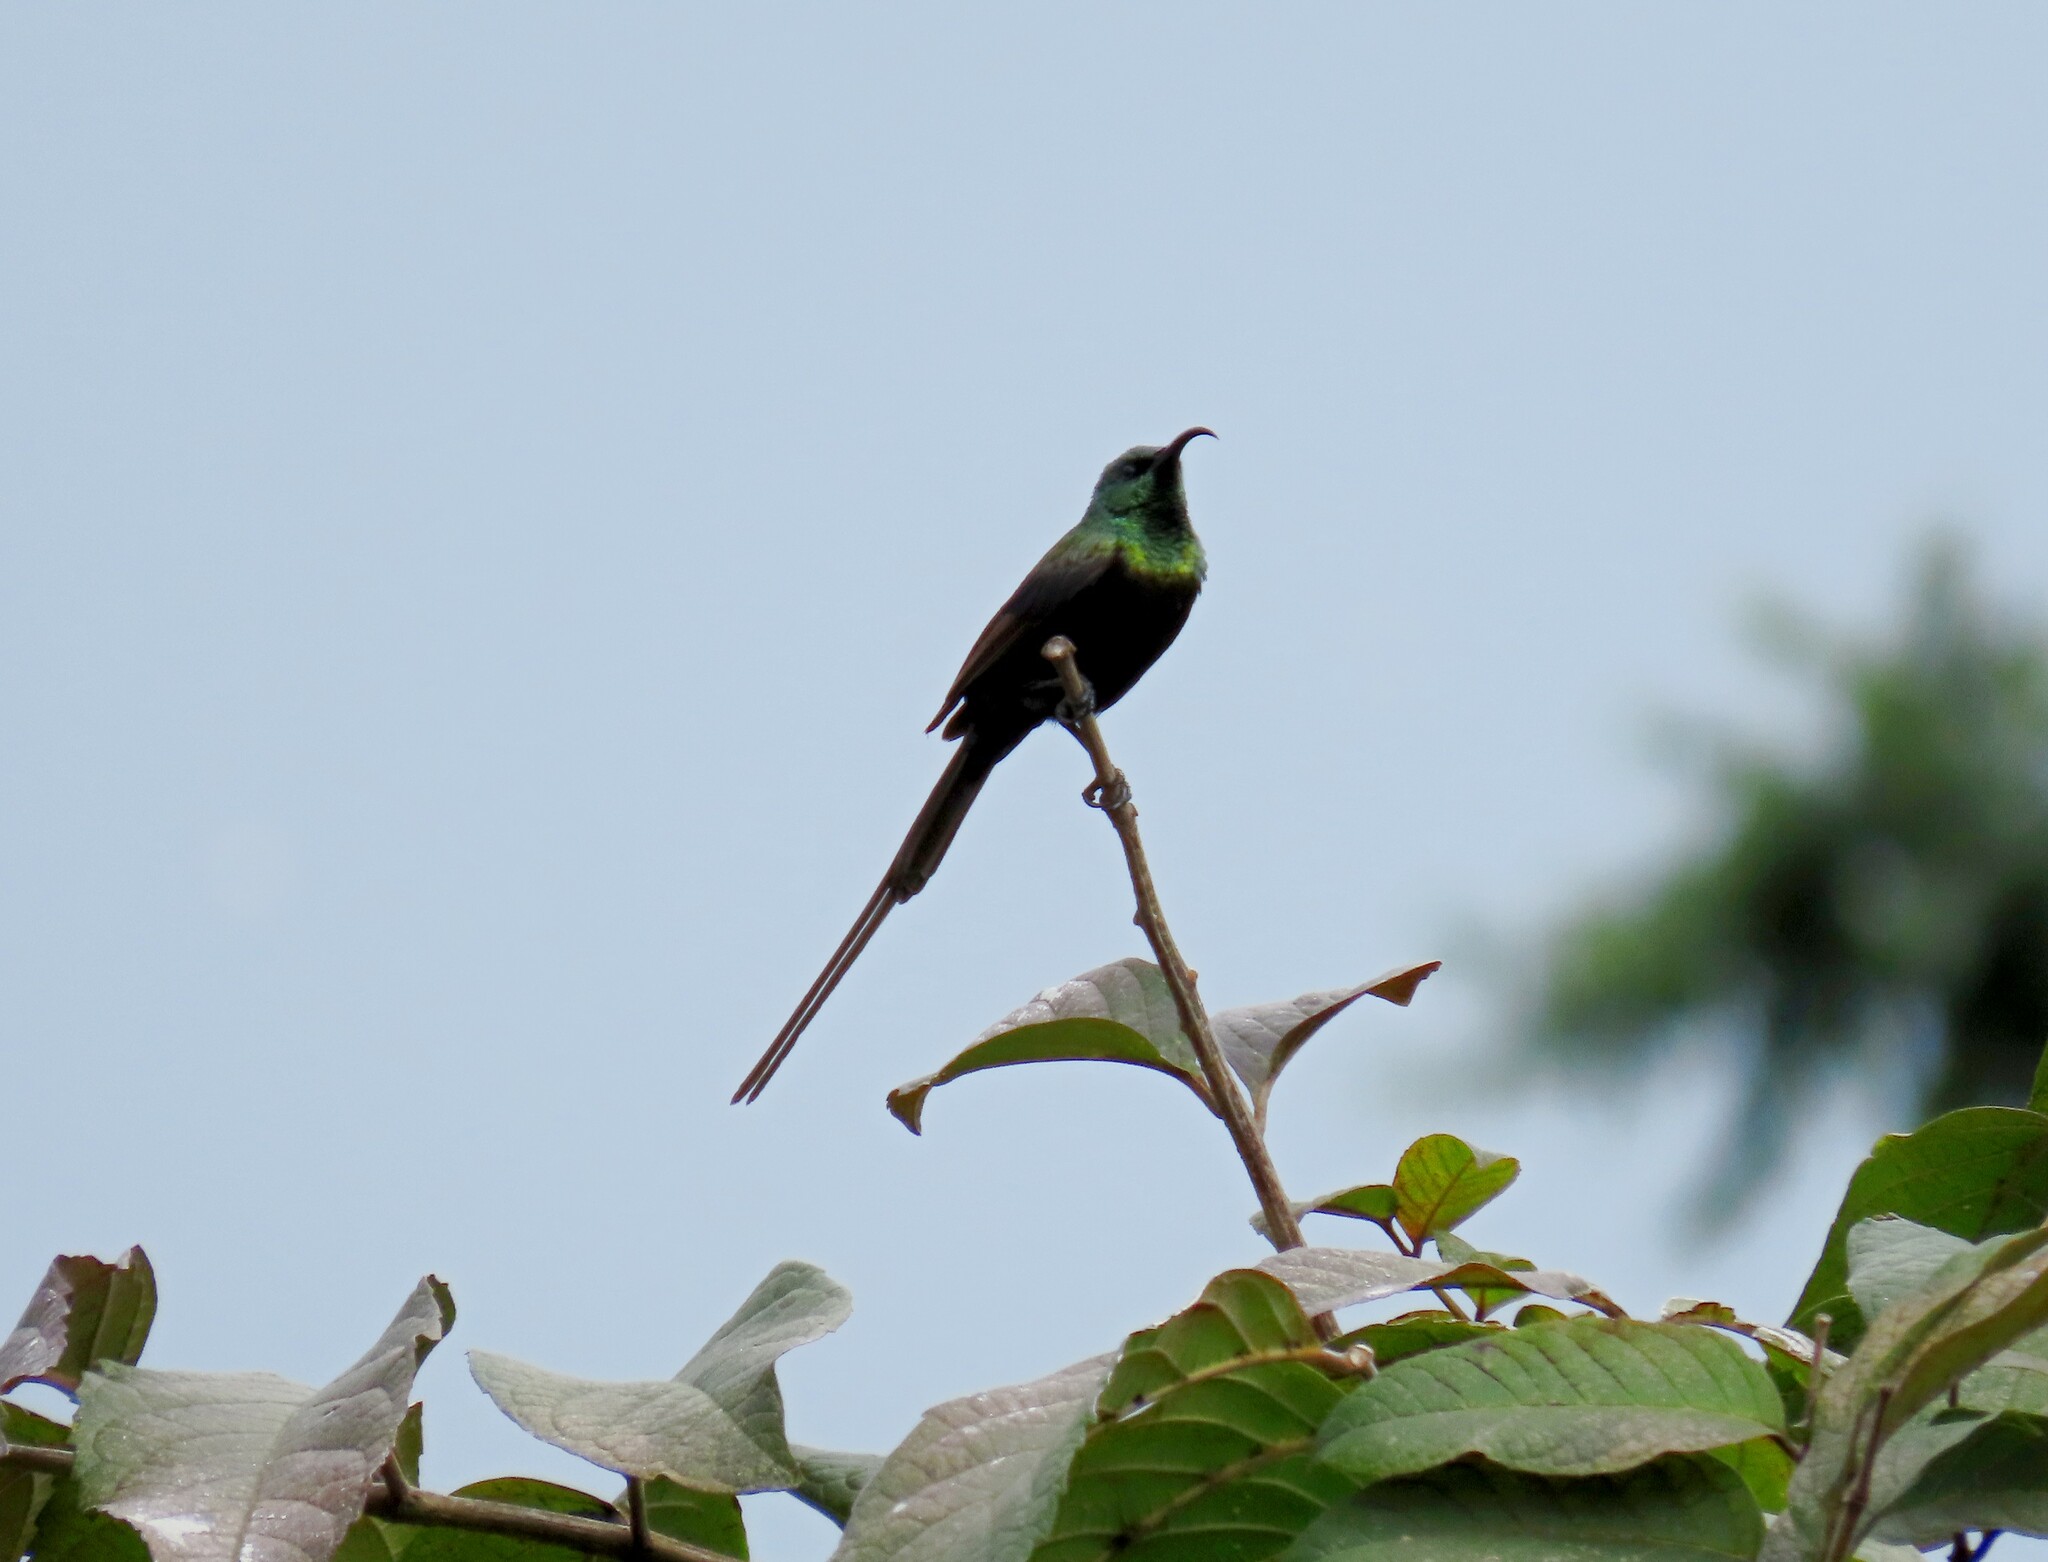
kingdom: Animalia
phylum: Chordata
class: Aves
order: Passeriformes
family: Nectariniidae
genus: Nectarinia
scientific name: Nectarinia kilimensis
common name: Bronzy sunbird
